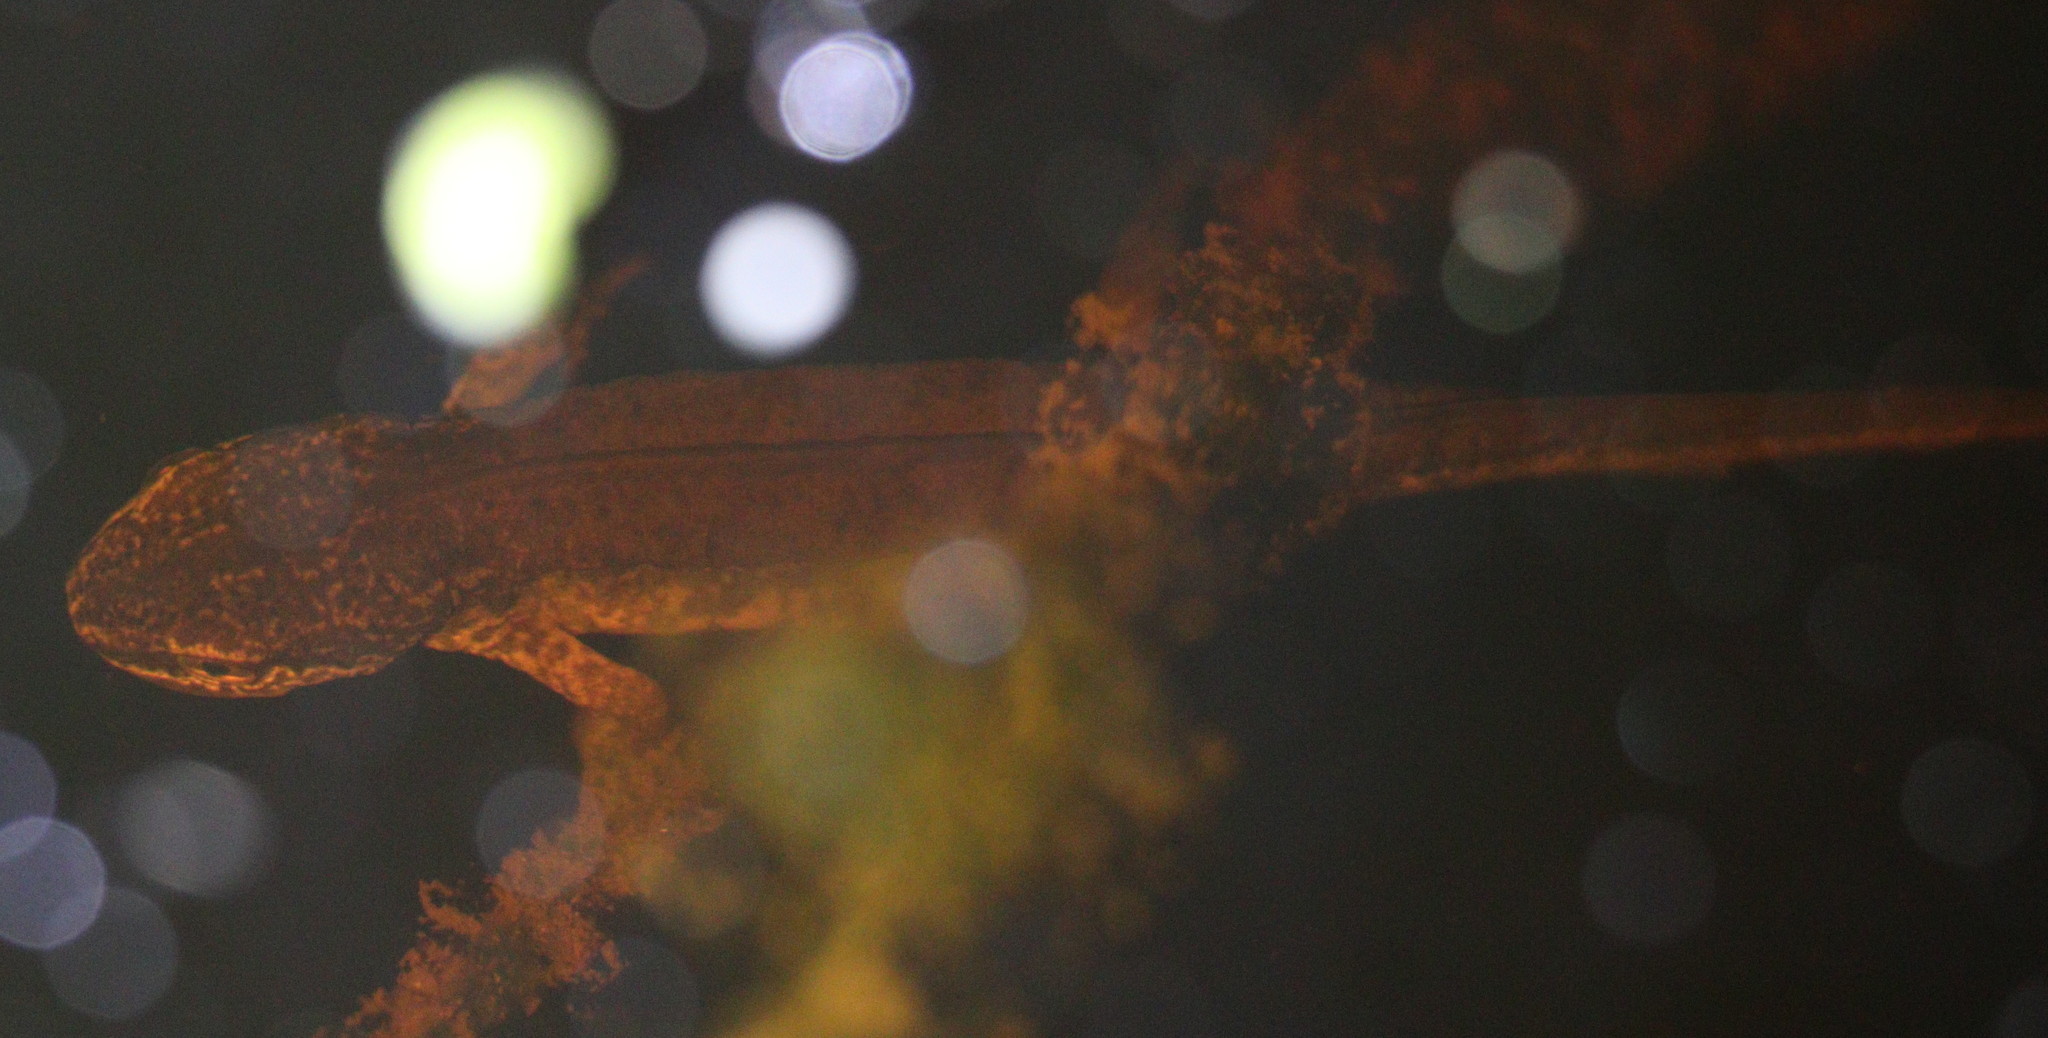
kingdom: Animalia
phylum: Chordata
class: Amphibia
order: Caudata
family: Salamandridae
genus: Lissotriton
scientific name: Lissotriton helveticus
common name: Palmate newt
